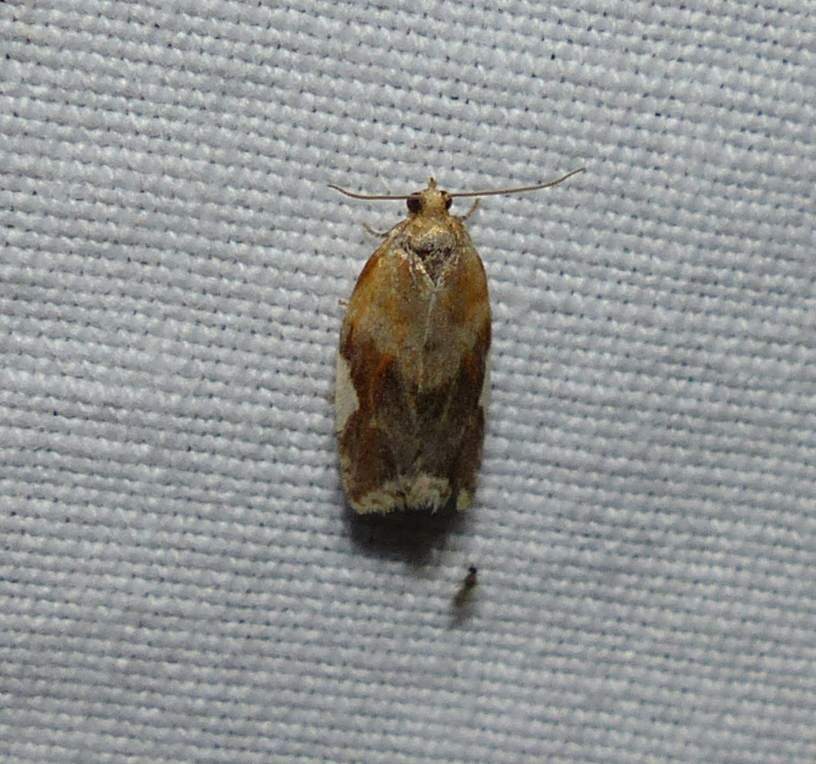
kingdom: Animalia
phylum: Arthropoda
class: Insecta
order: Lepidoptera
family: Tortricidae
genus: Clepsis
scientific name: Clepsis persicana
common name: White triangle tortrix
